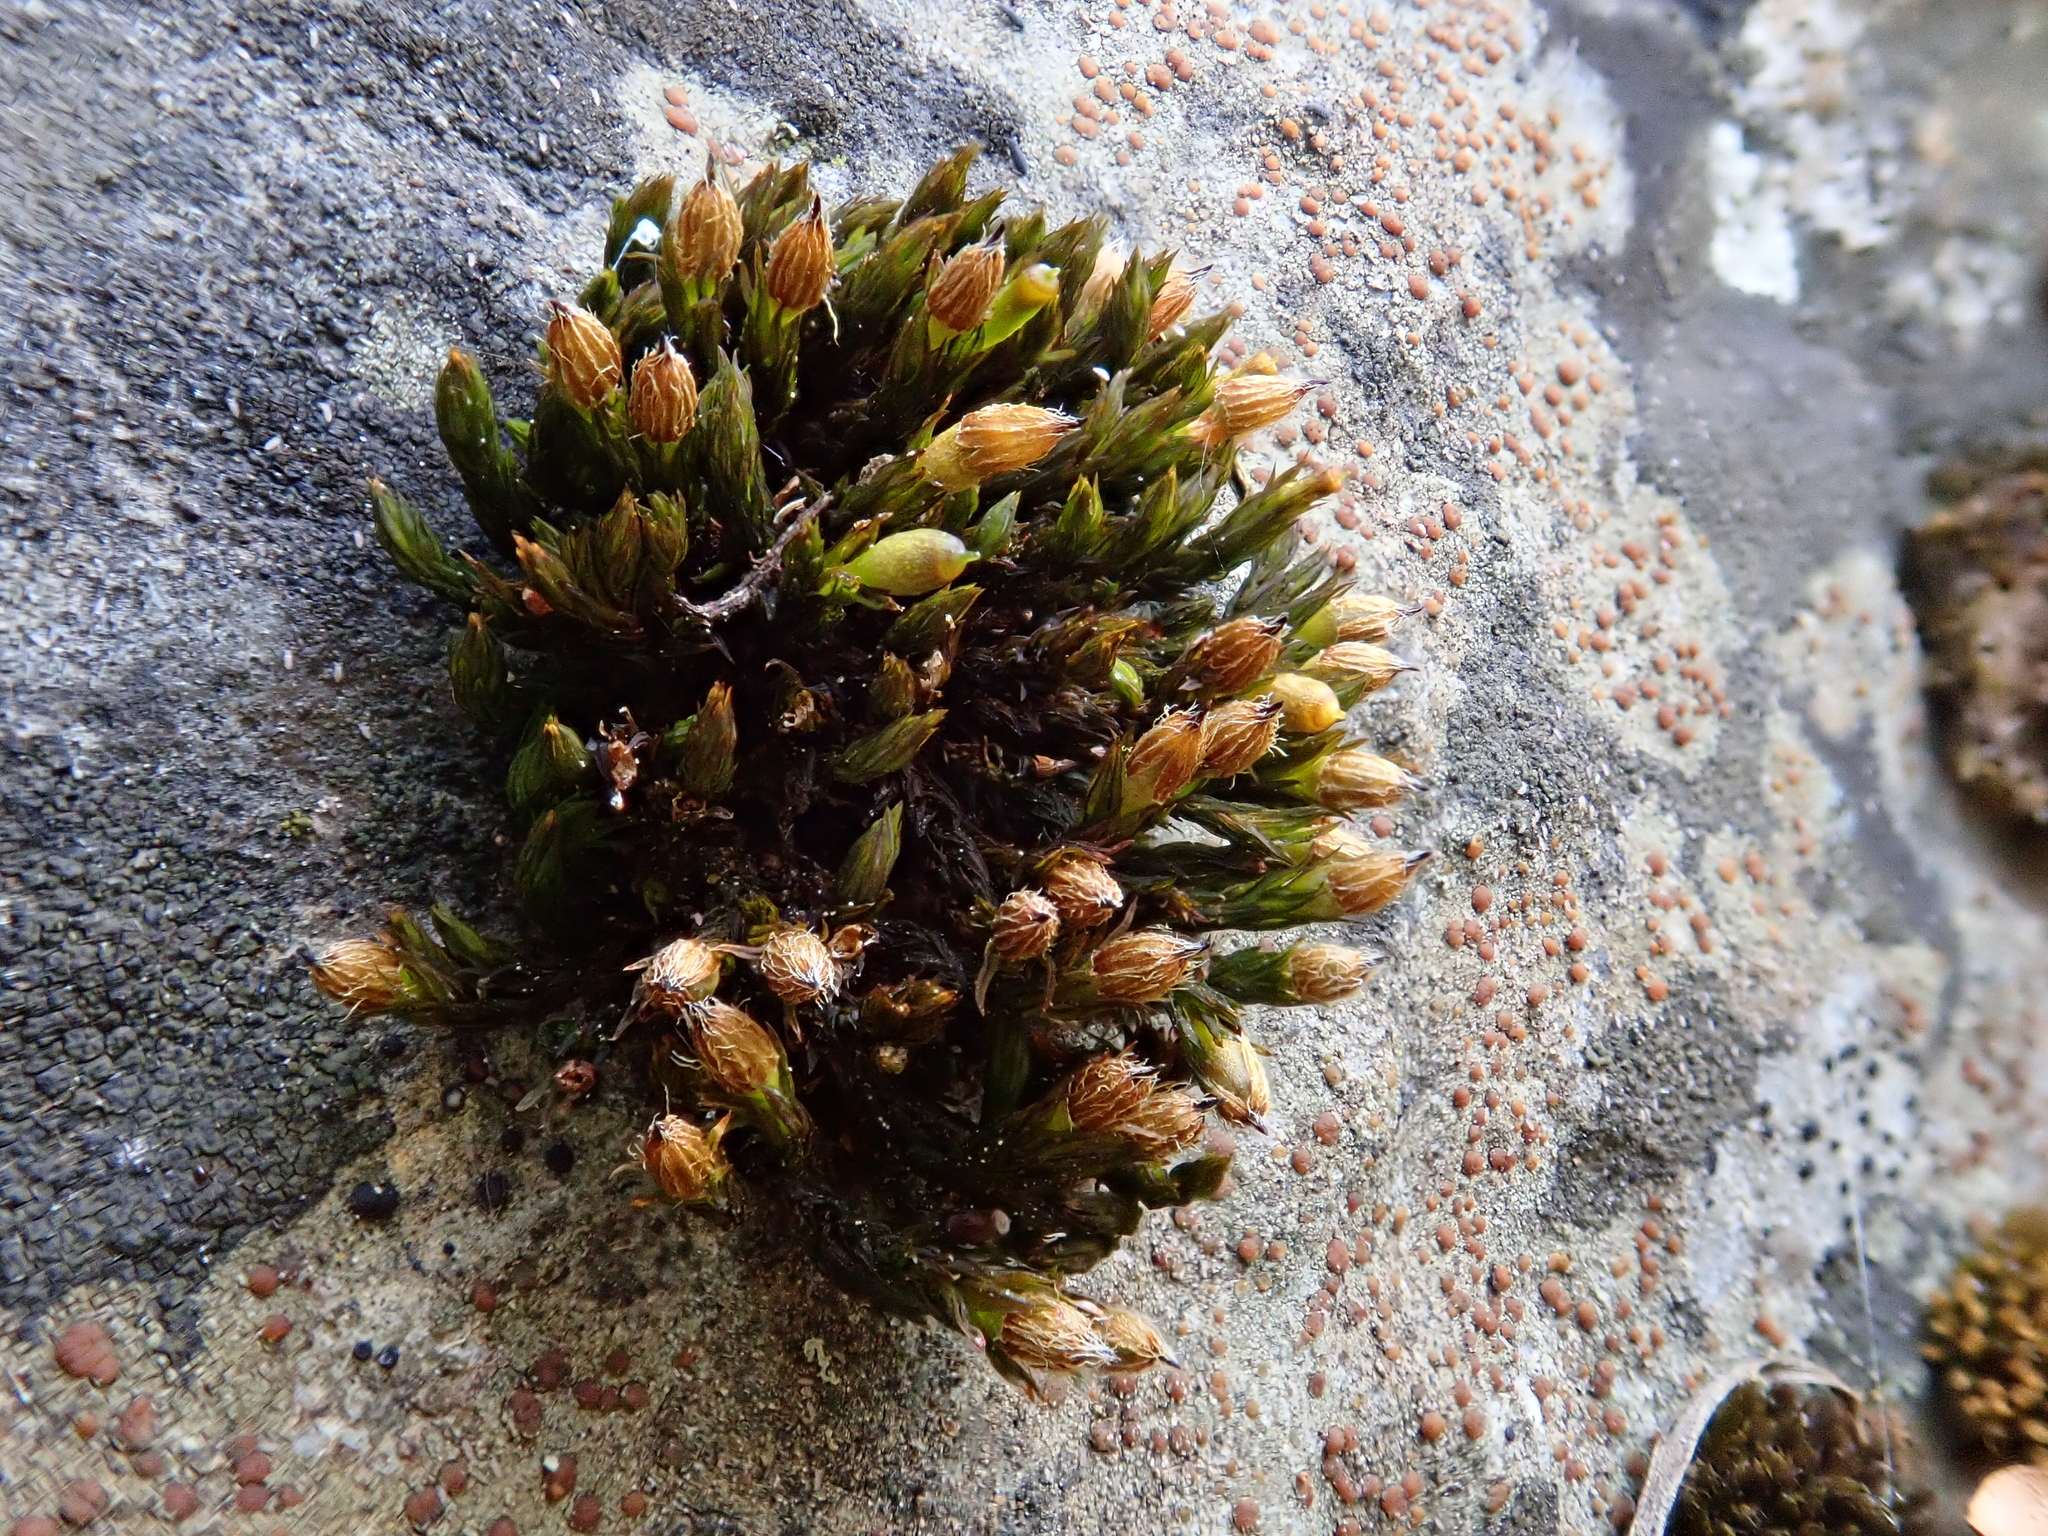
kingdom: Plantae
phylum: Bryophyta
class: Bryopsida
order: Orthotrichales
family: Orthotrichaceae
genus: Orthotrichum
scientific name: Orthotrichum cupulatum
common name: Hooded bristle-moss
